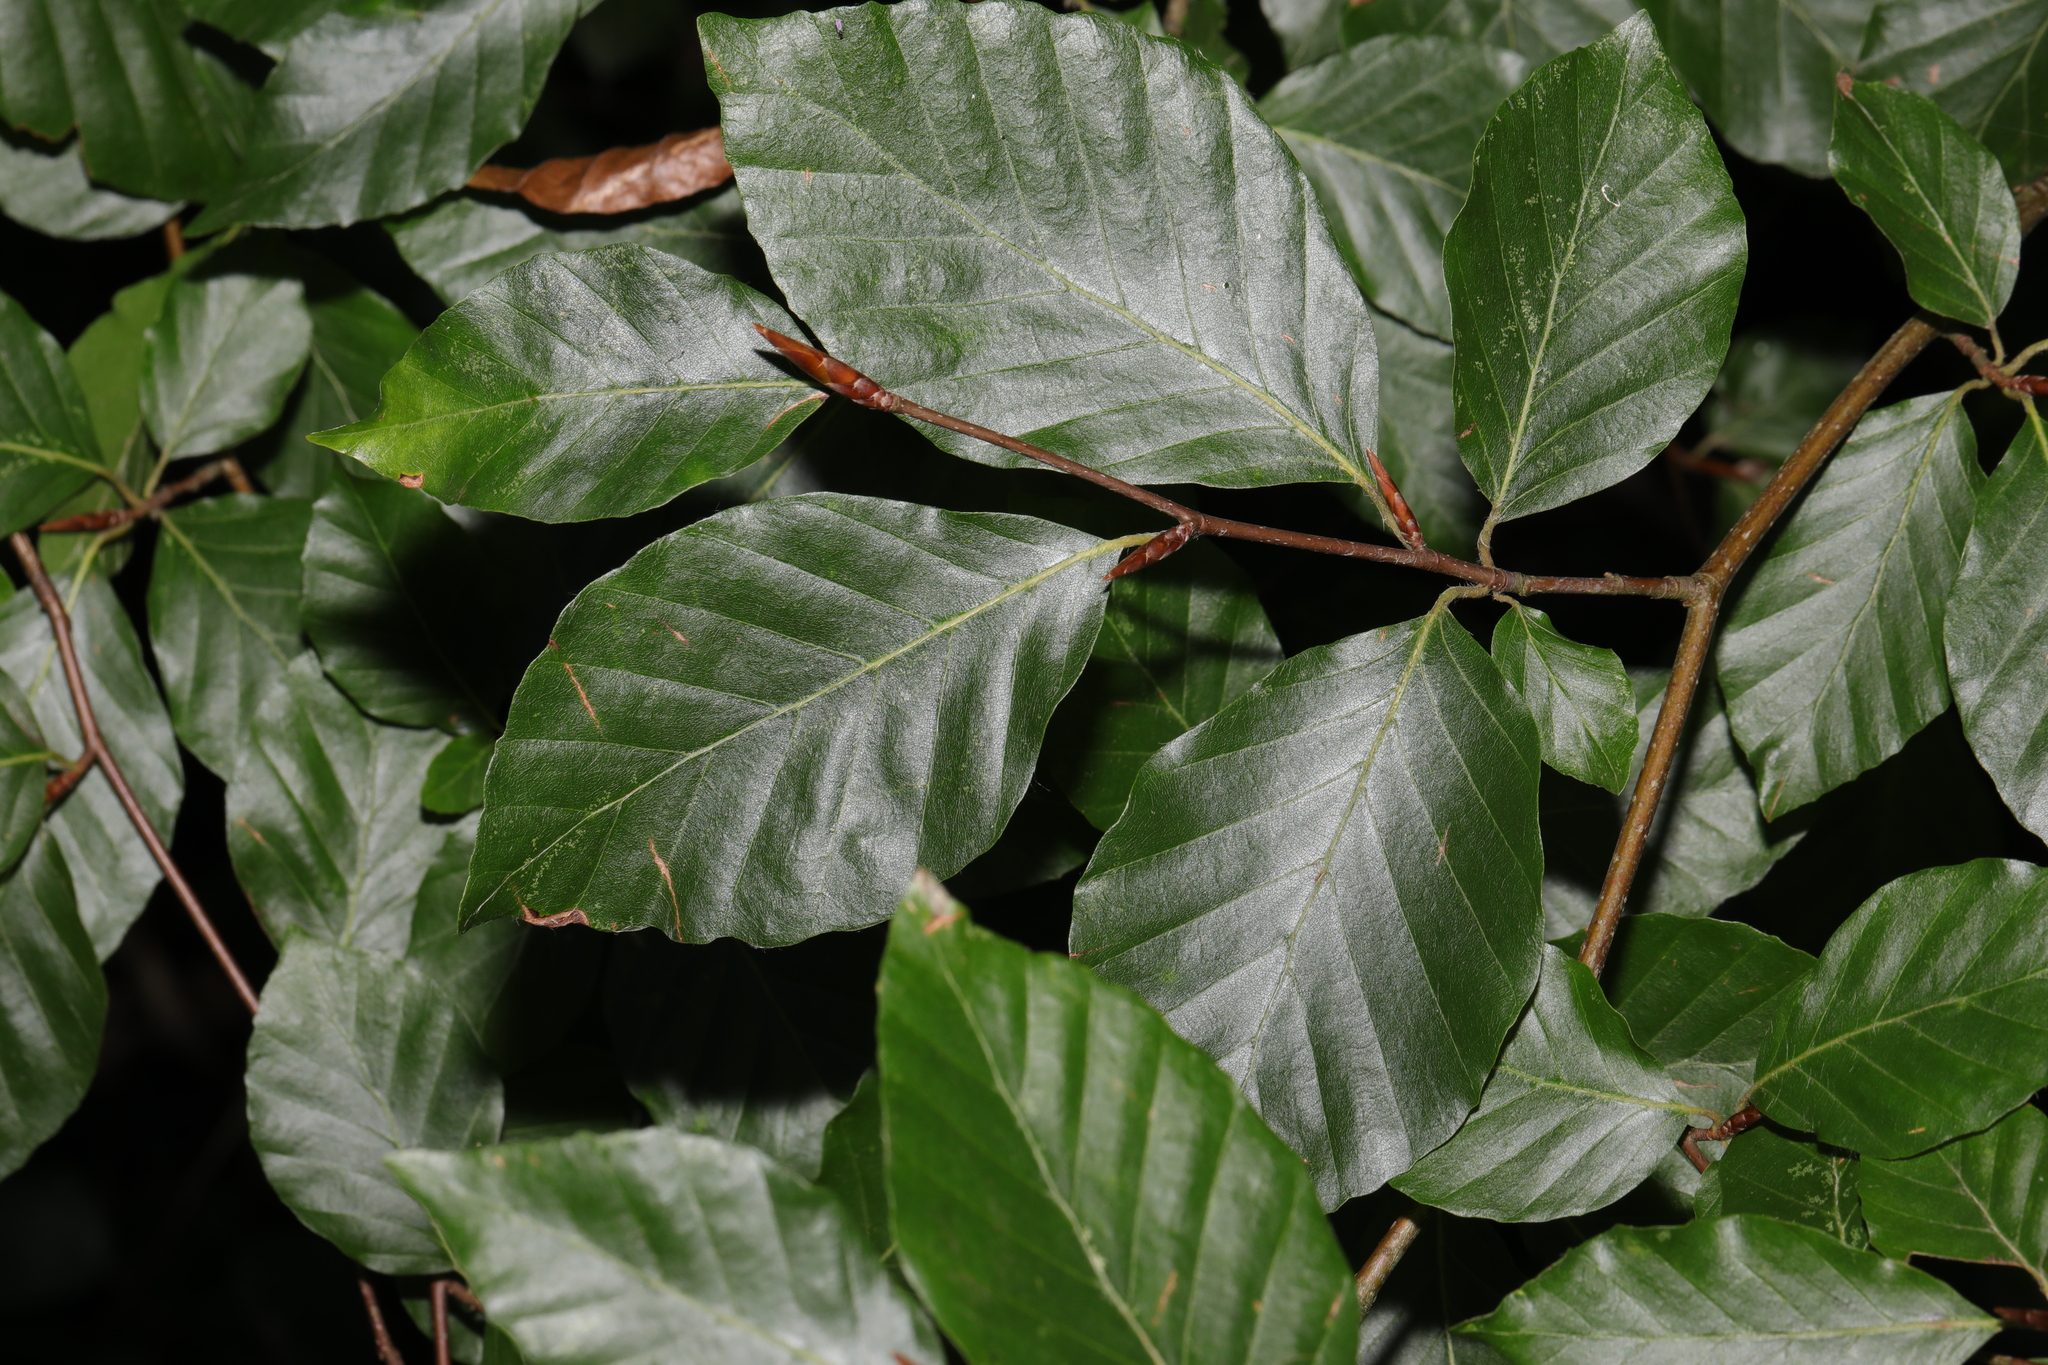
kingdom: Plantae
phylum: Tracheophyta
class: Magnoliopsida
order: Fagales
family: Fagaceae
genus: Fagus
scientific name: Fagus sylvatica
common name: Beech
